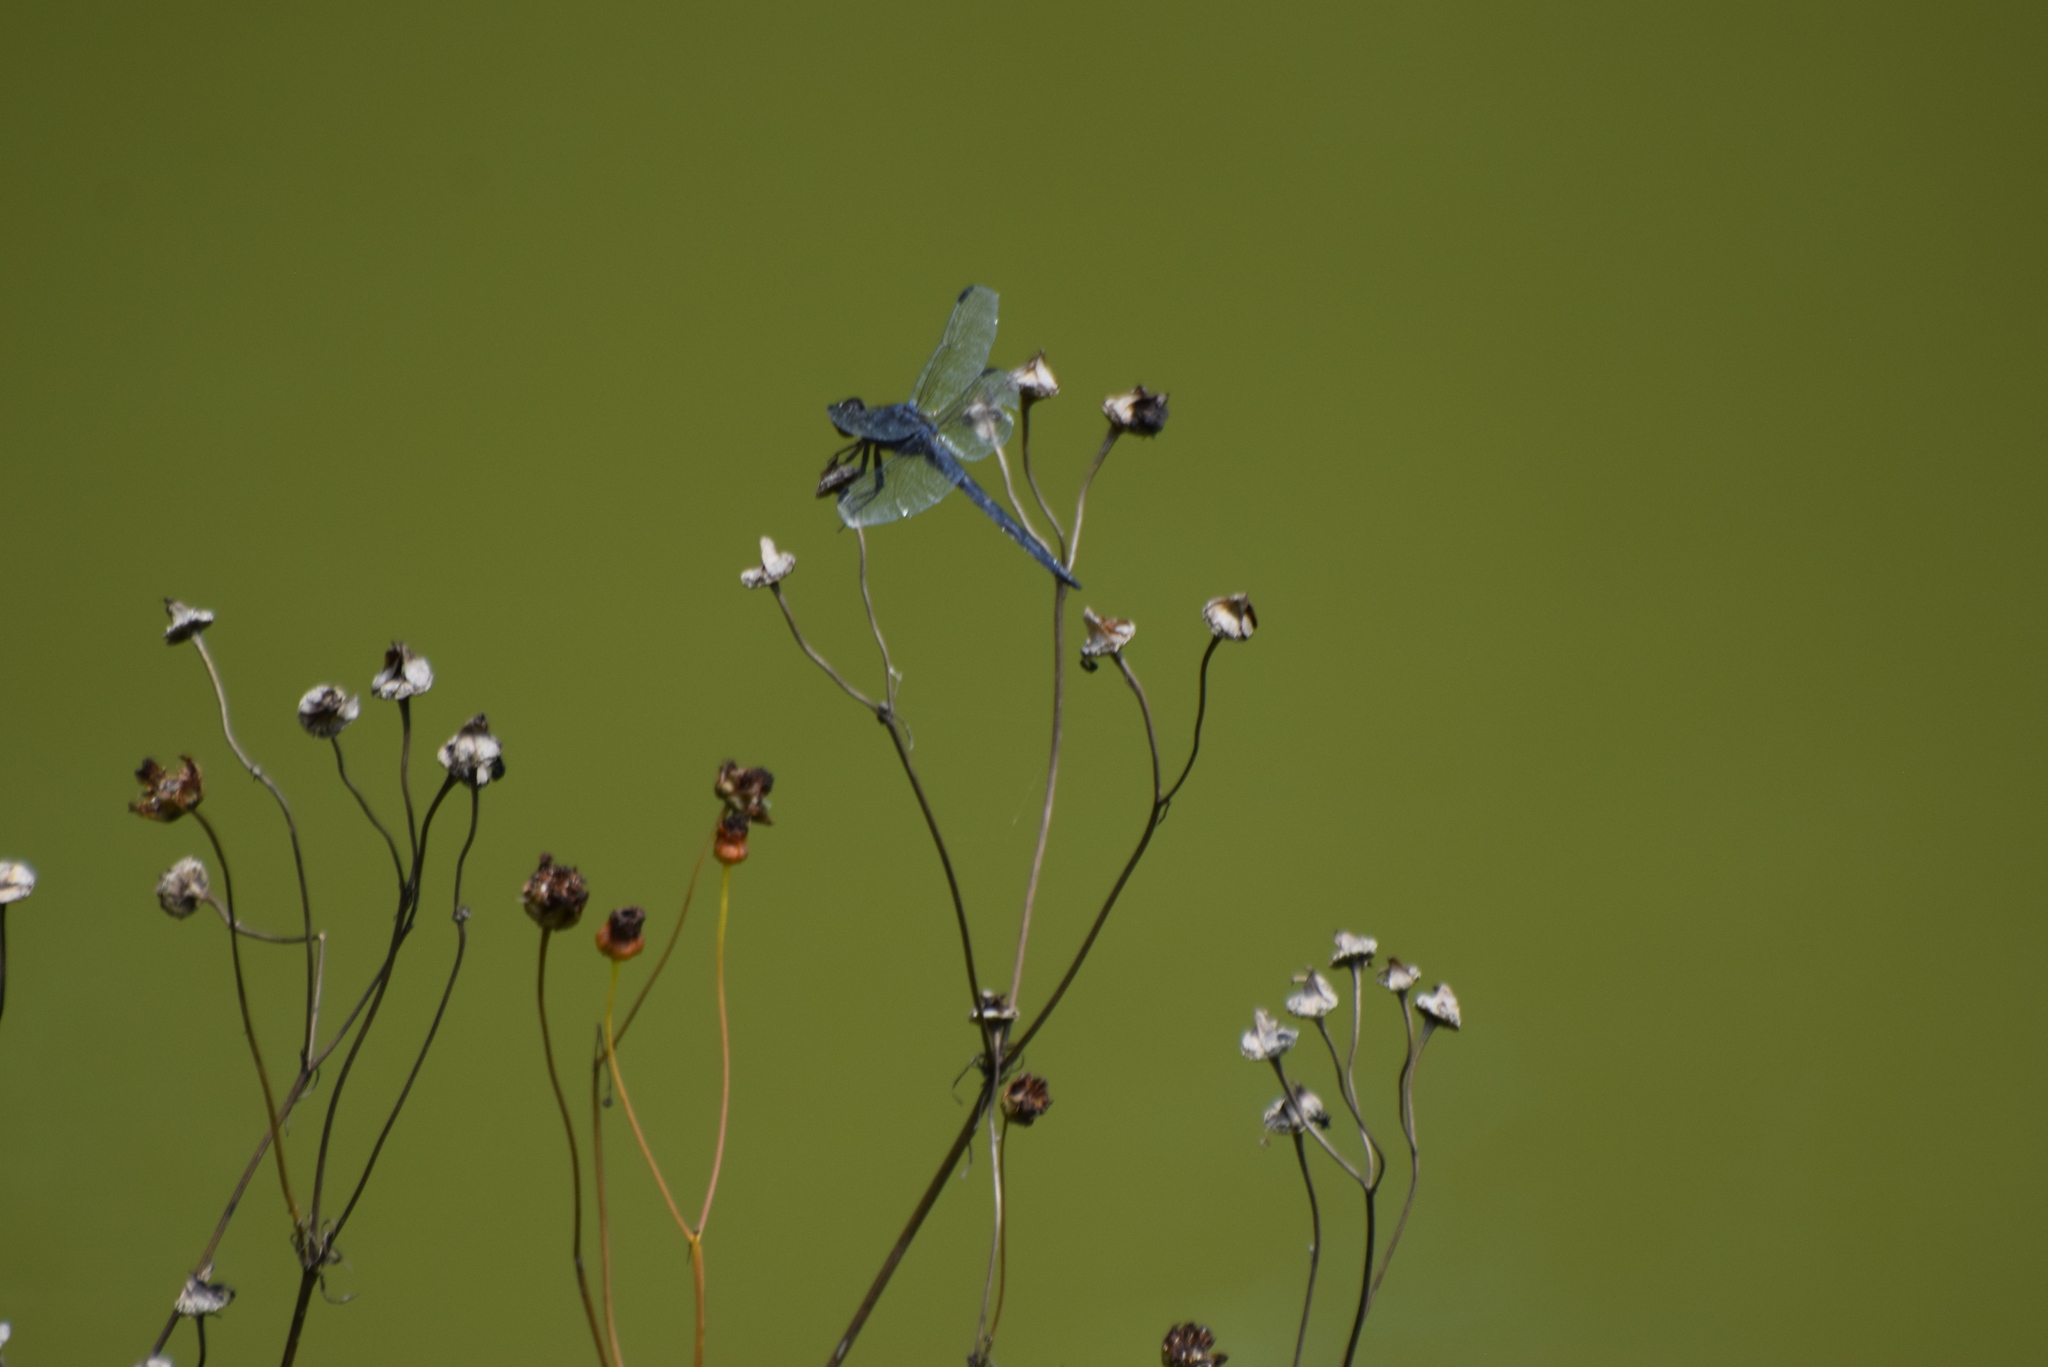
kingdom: Animalia
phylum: Arthropoda
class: Insecta
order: Odonata
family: Libellulidae
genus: Libellula
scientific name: Libellula incesta
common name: Slaty skimmer
